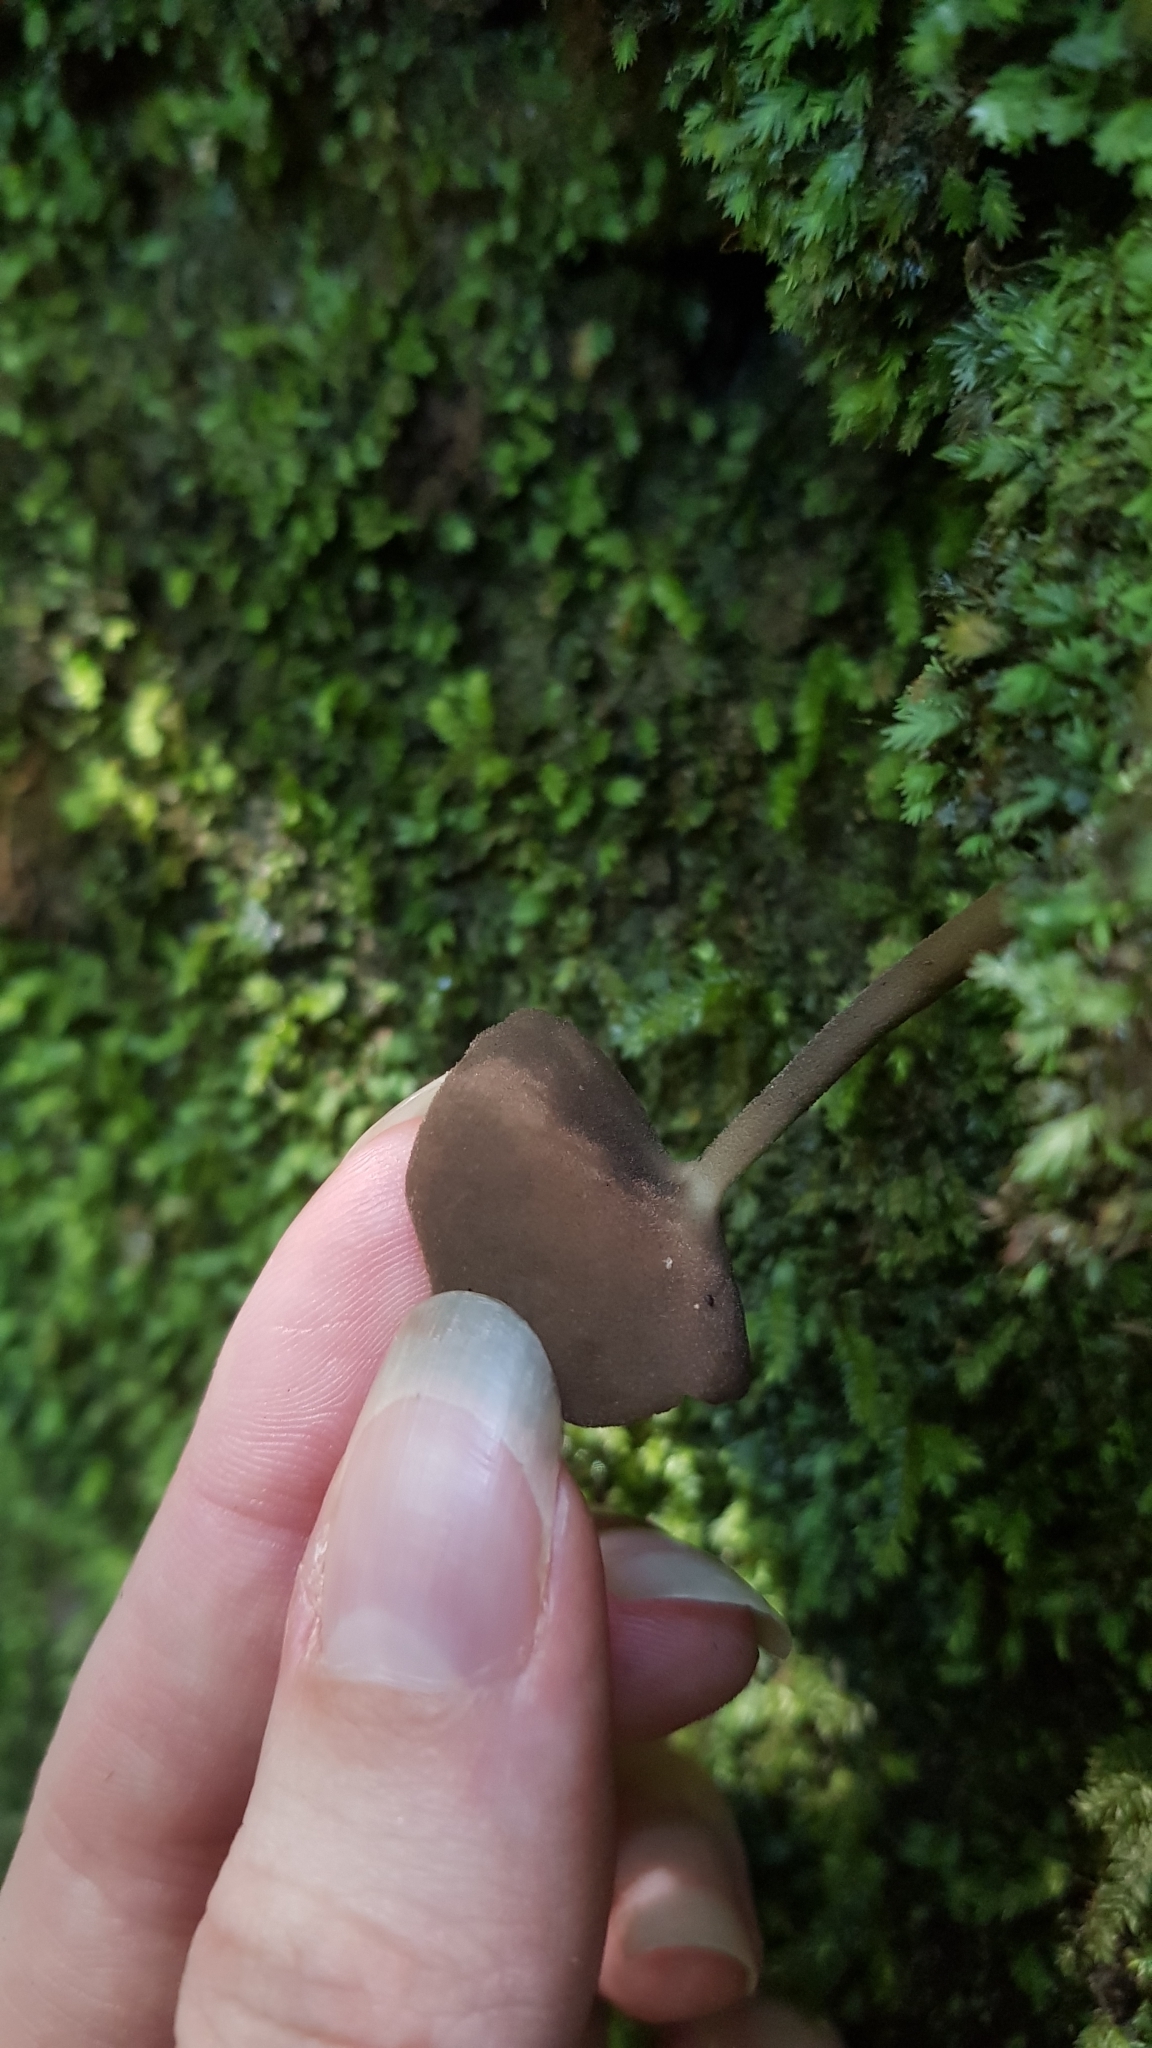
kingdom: Fungi
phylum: Ascomycota
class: Pezizomycetes
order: Pezizales
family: Helvellaceae
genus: Helvella
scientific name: Helvella fibrosa
